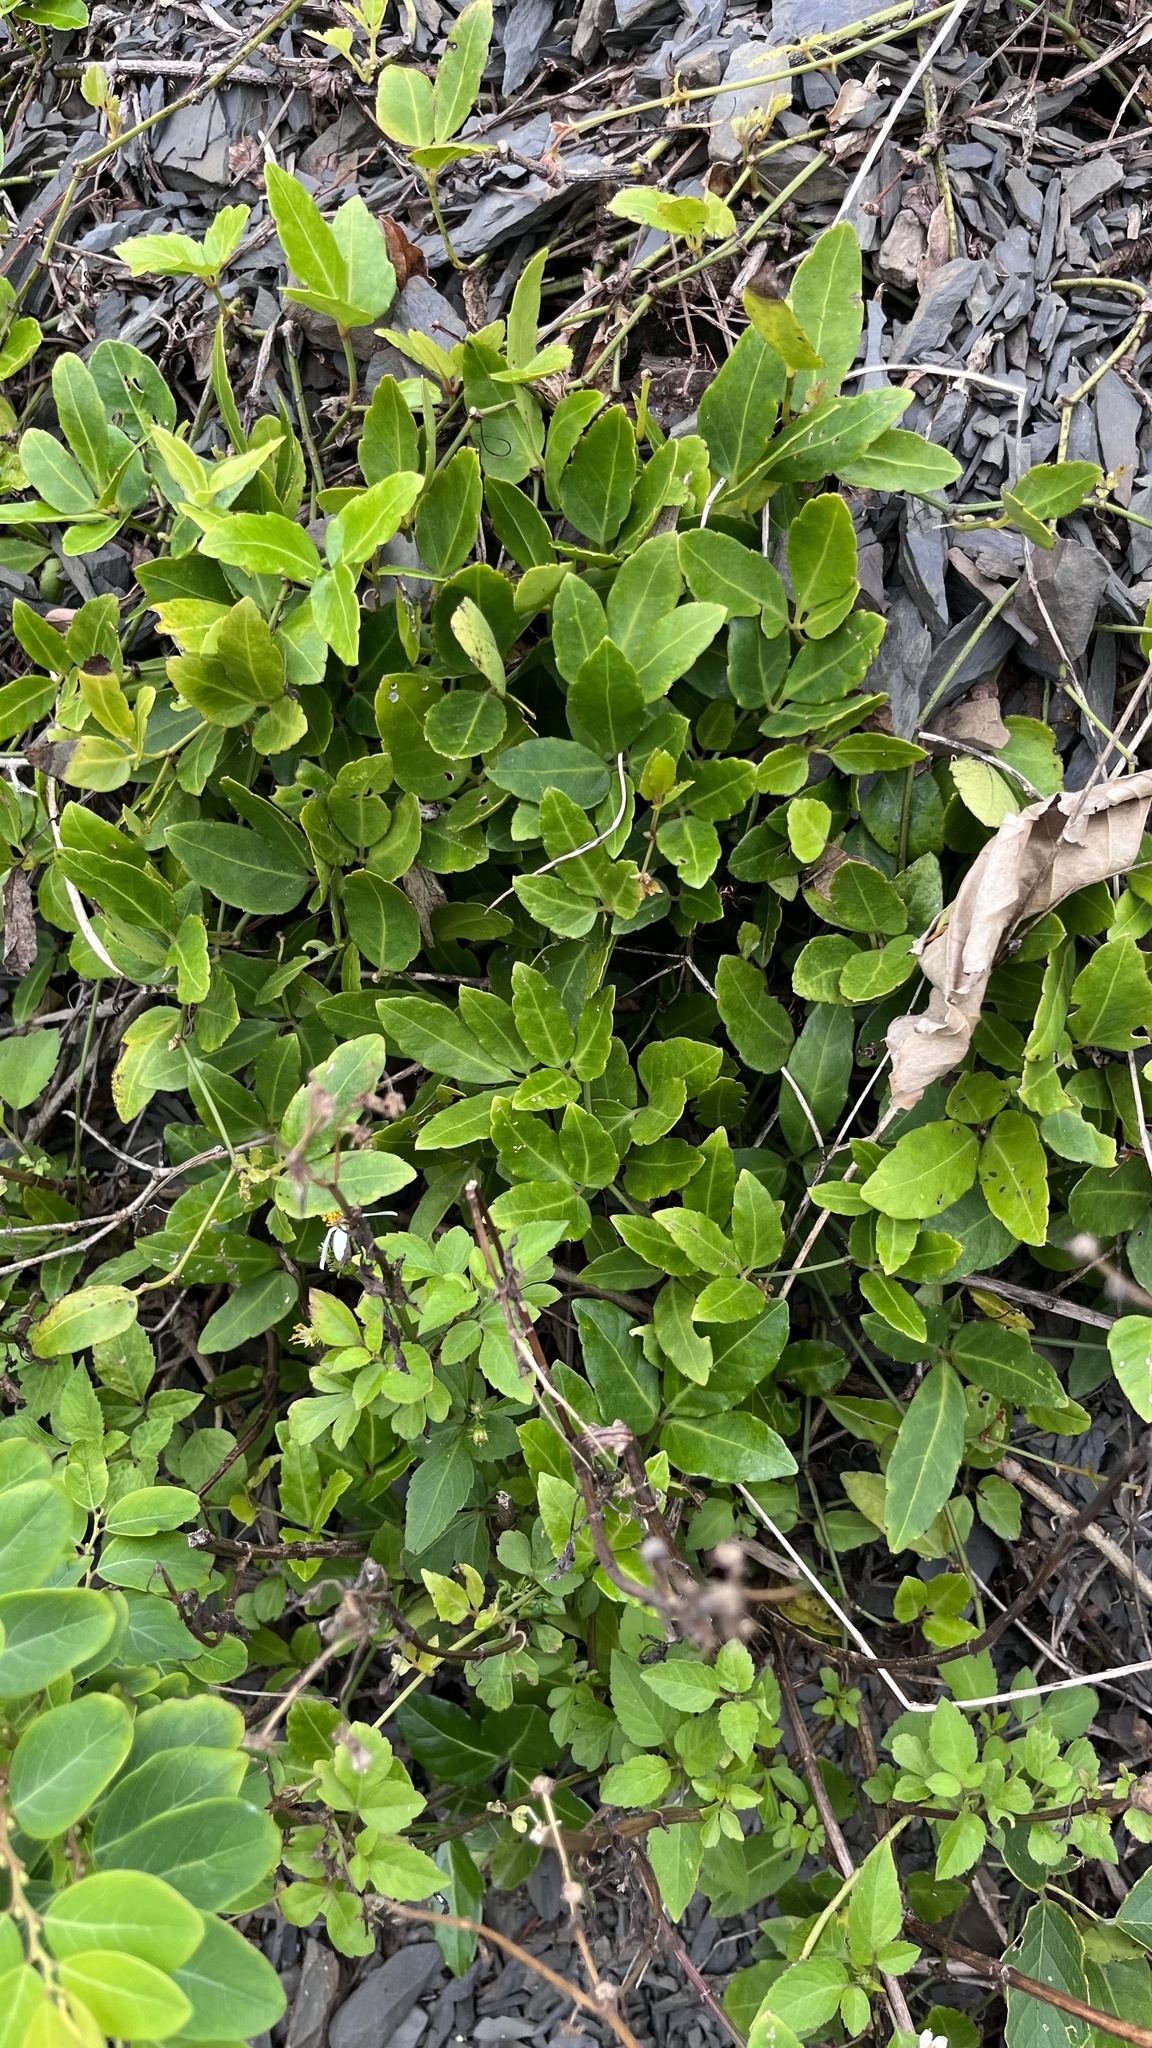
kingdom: Plantae
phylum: Tracheophyta
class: Magnoliopsida
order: Vitales
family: Vitaceae
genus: Tetrastigma
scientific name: Tetrastigma formosanum
